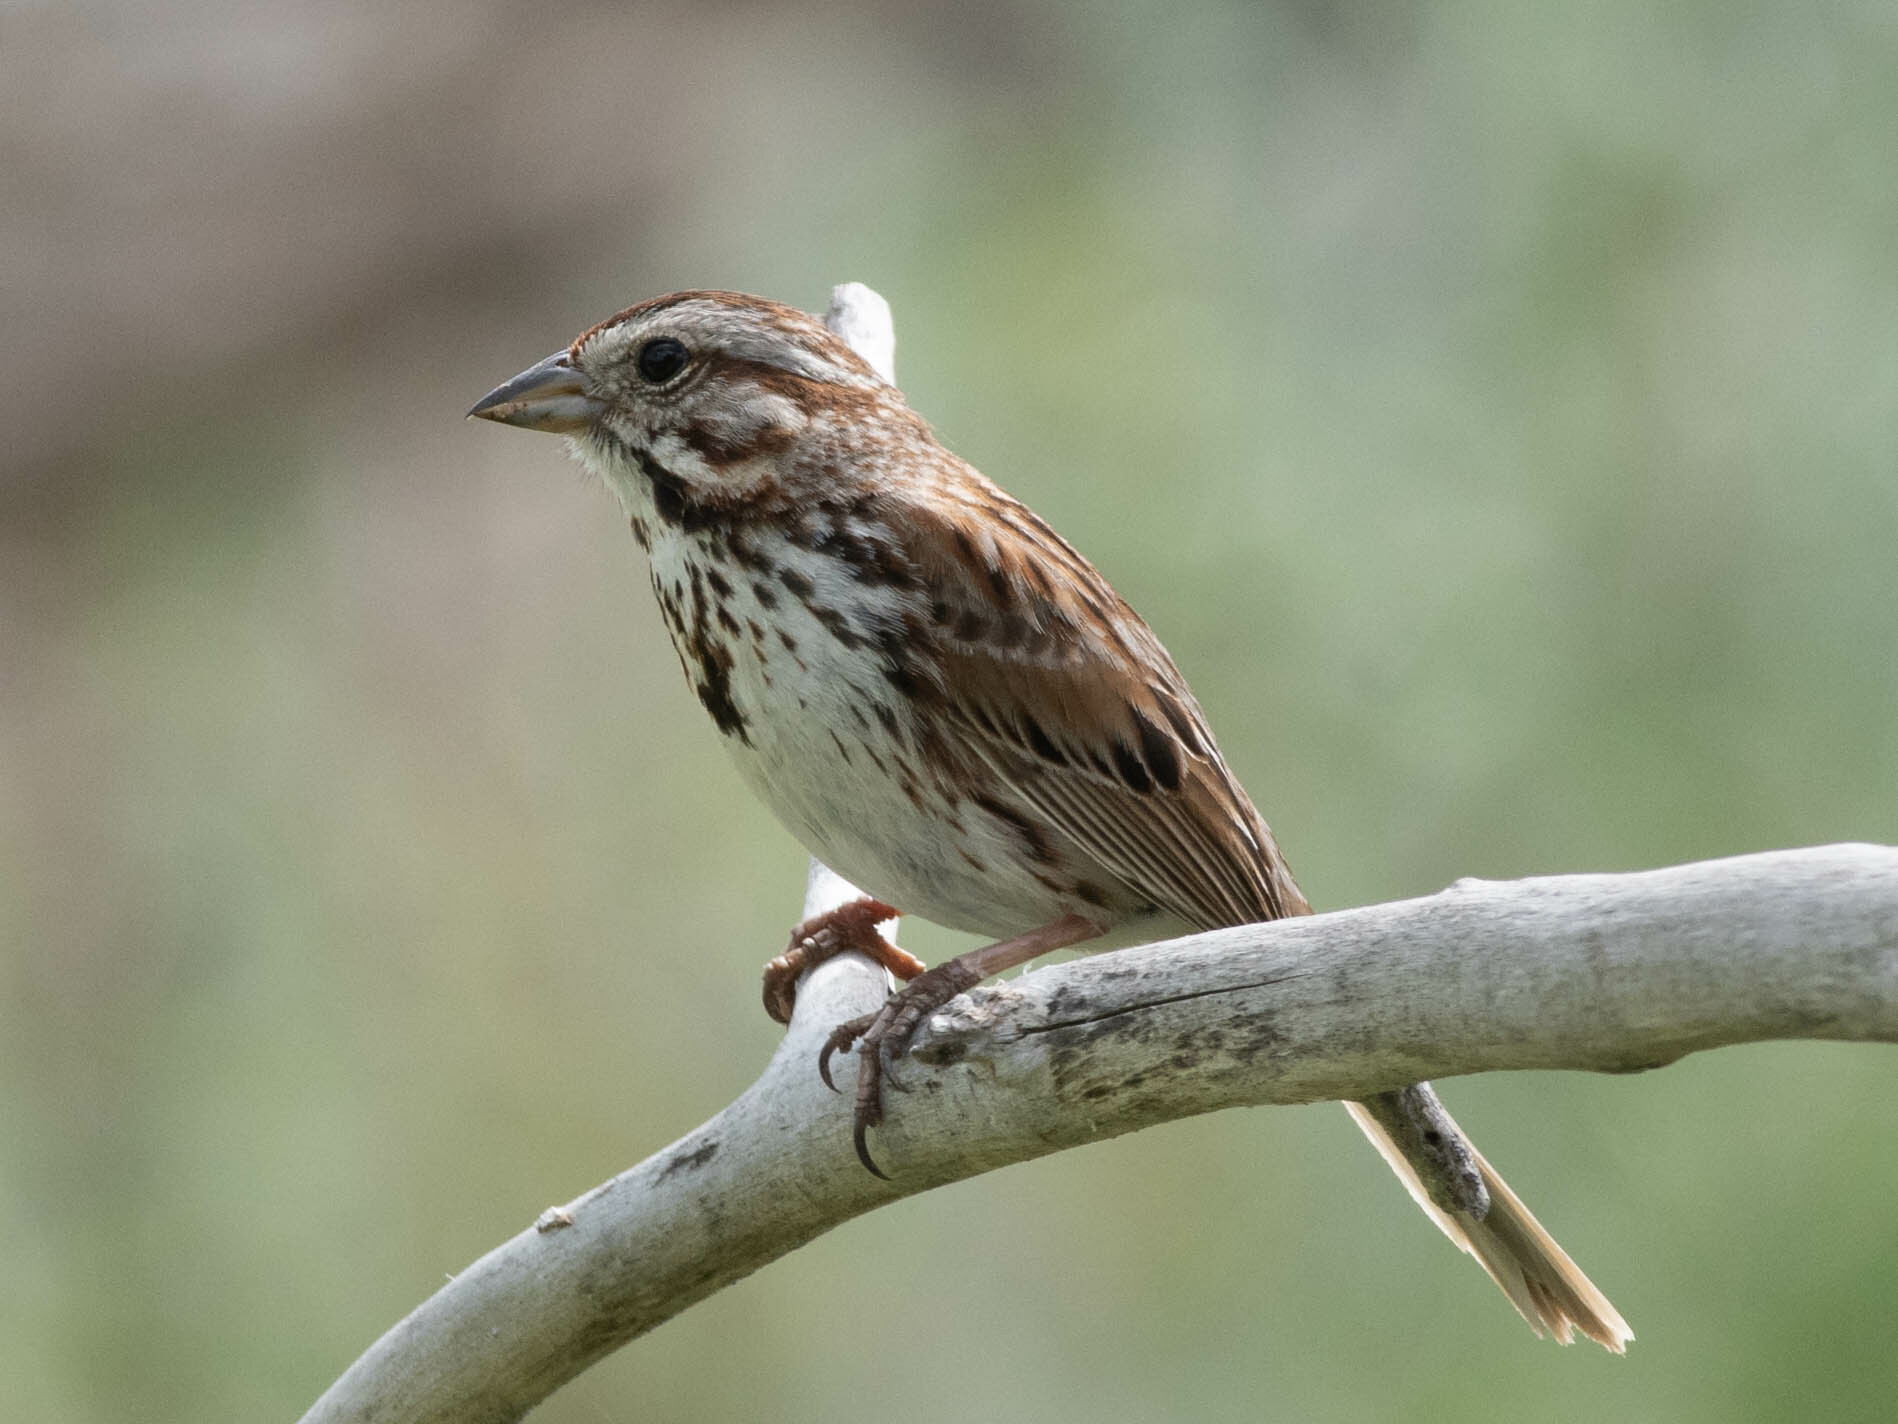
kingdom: Animalia
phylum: Chordata
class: Aves
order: Passeriformes
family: Passerellidae
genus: Melospiza
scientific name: Melospiza melodia
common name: Song sparrow
